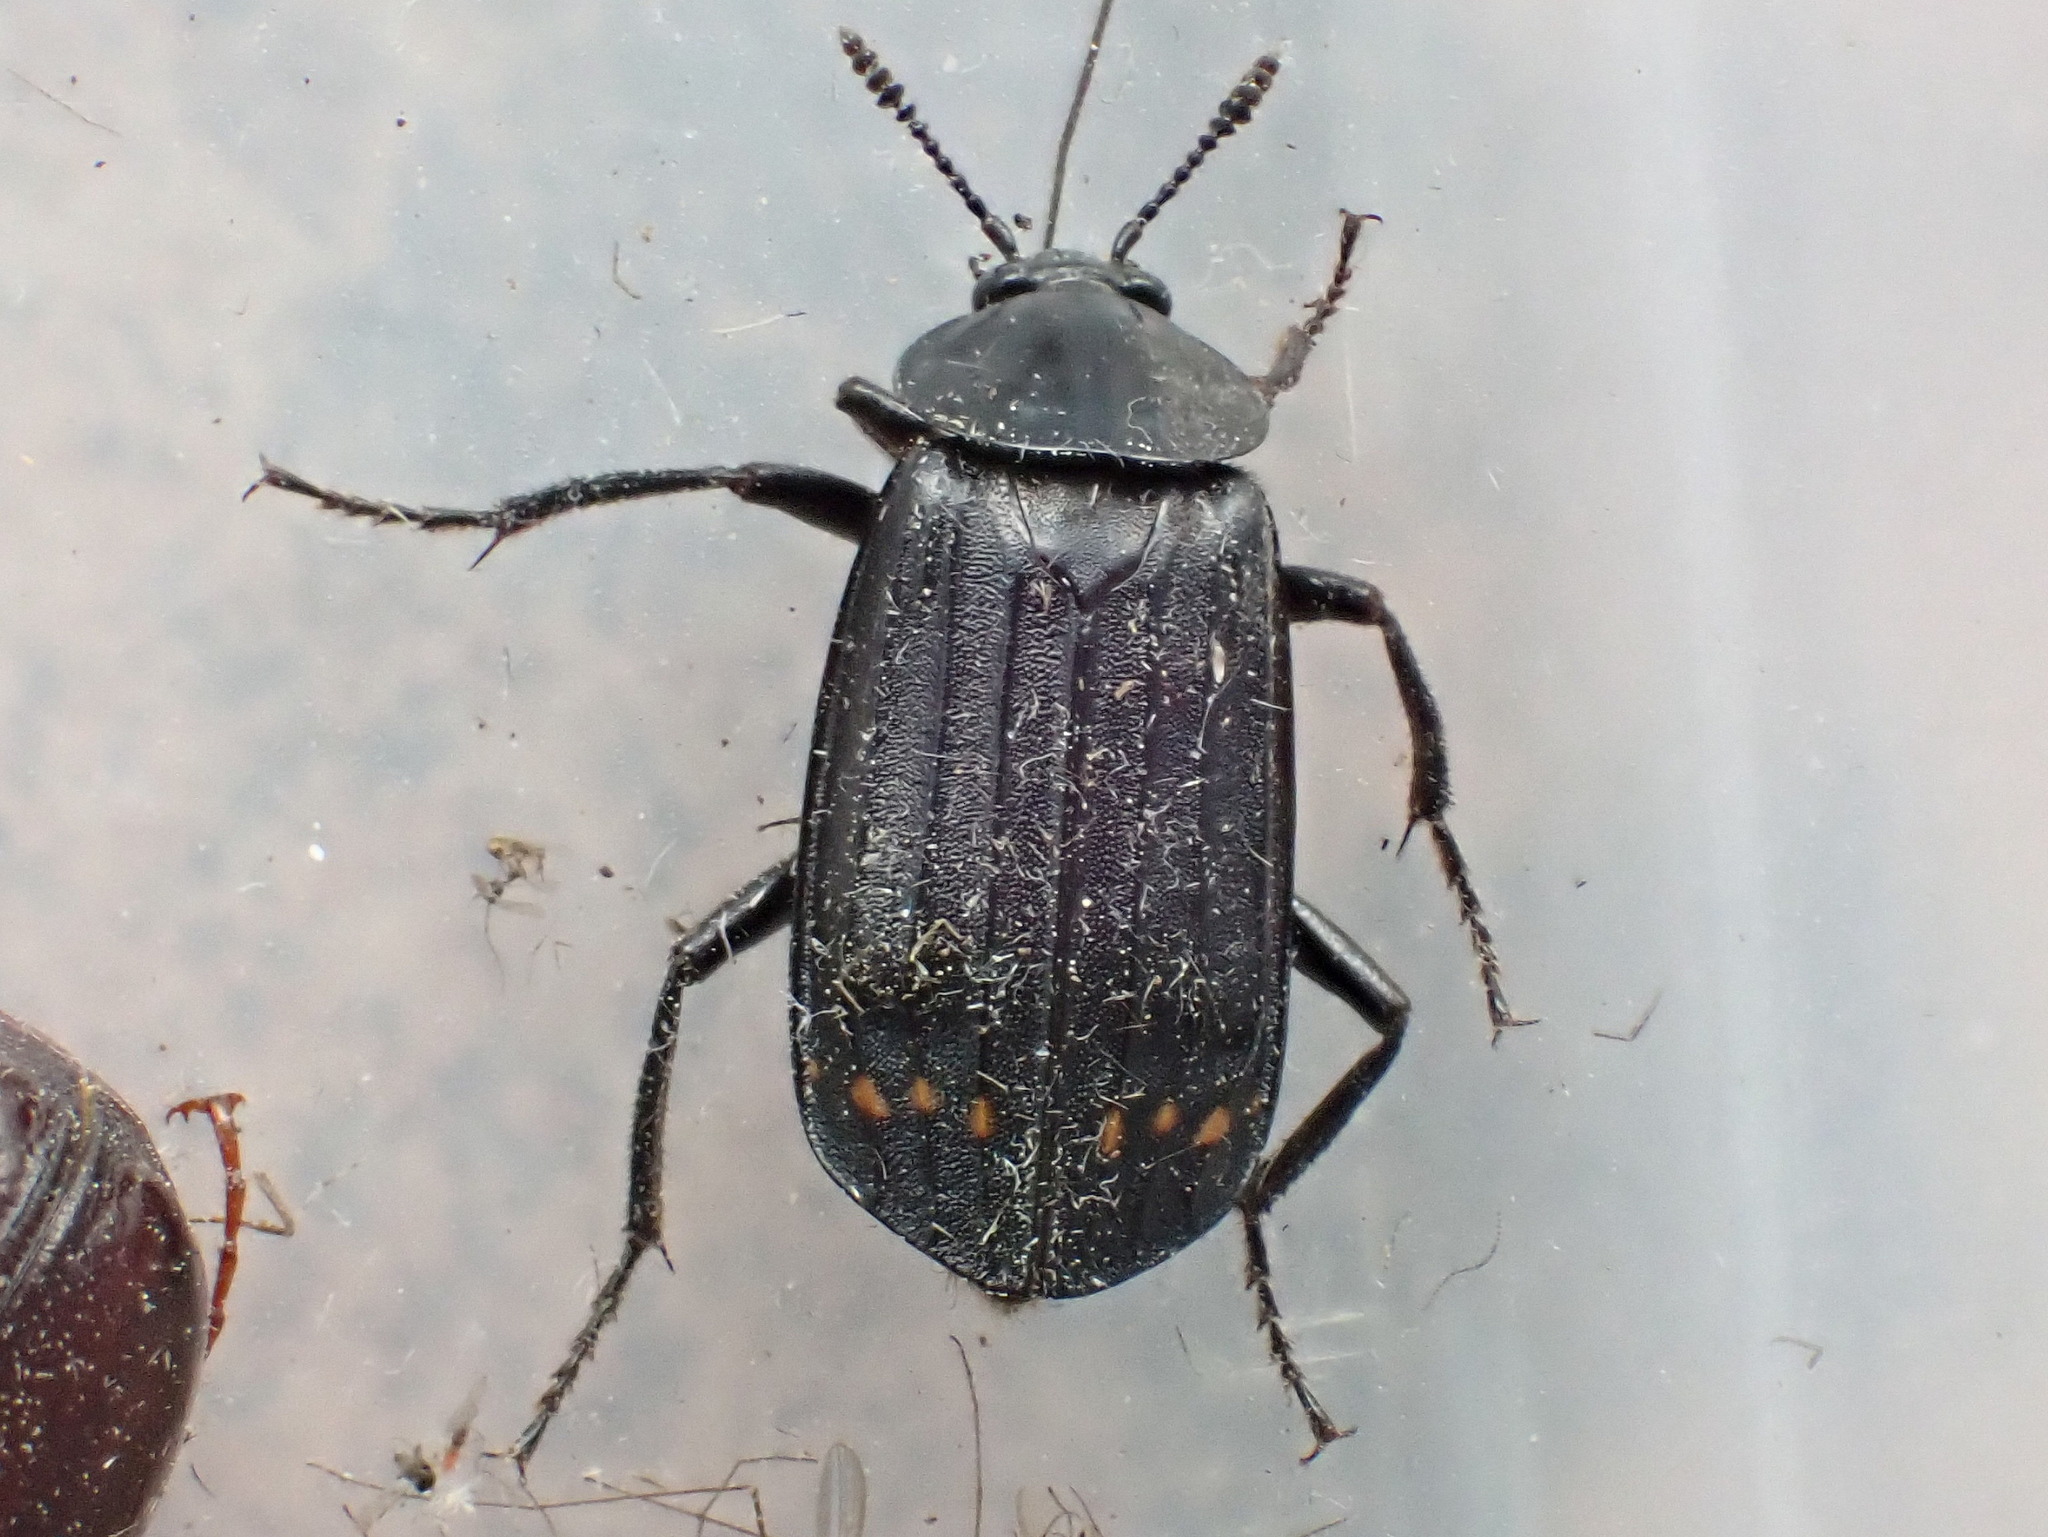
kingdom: Animalia
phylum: Arthropoda
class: Insecta
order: Coleoptera
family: Staphylinidae
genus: Necrodes
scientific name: Necrodes surinamensis
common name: Red-lined carrion beetle
